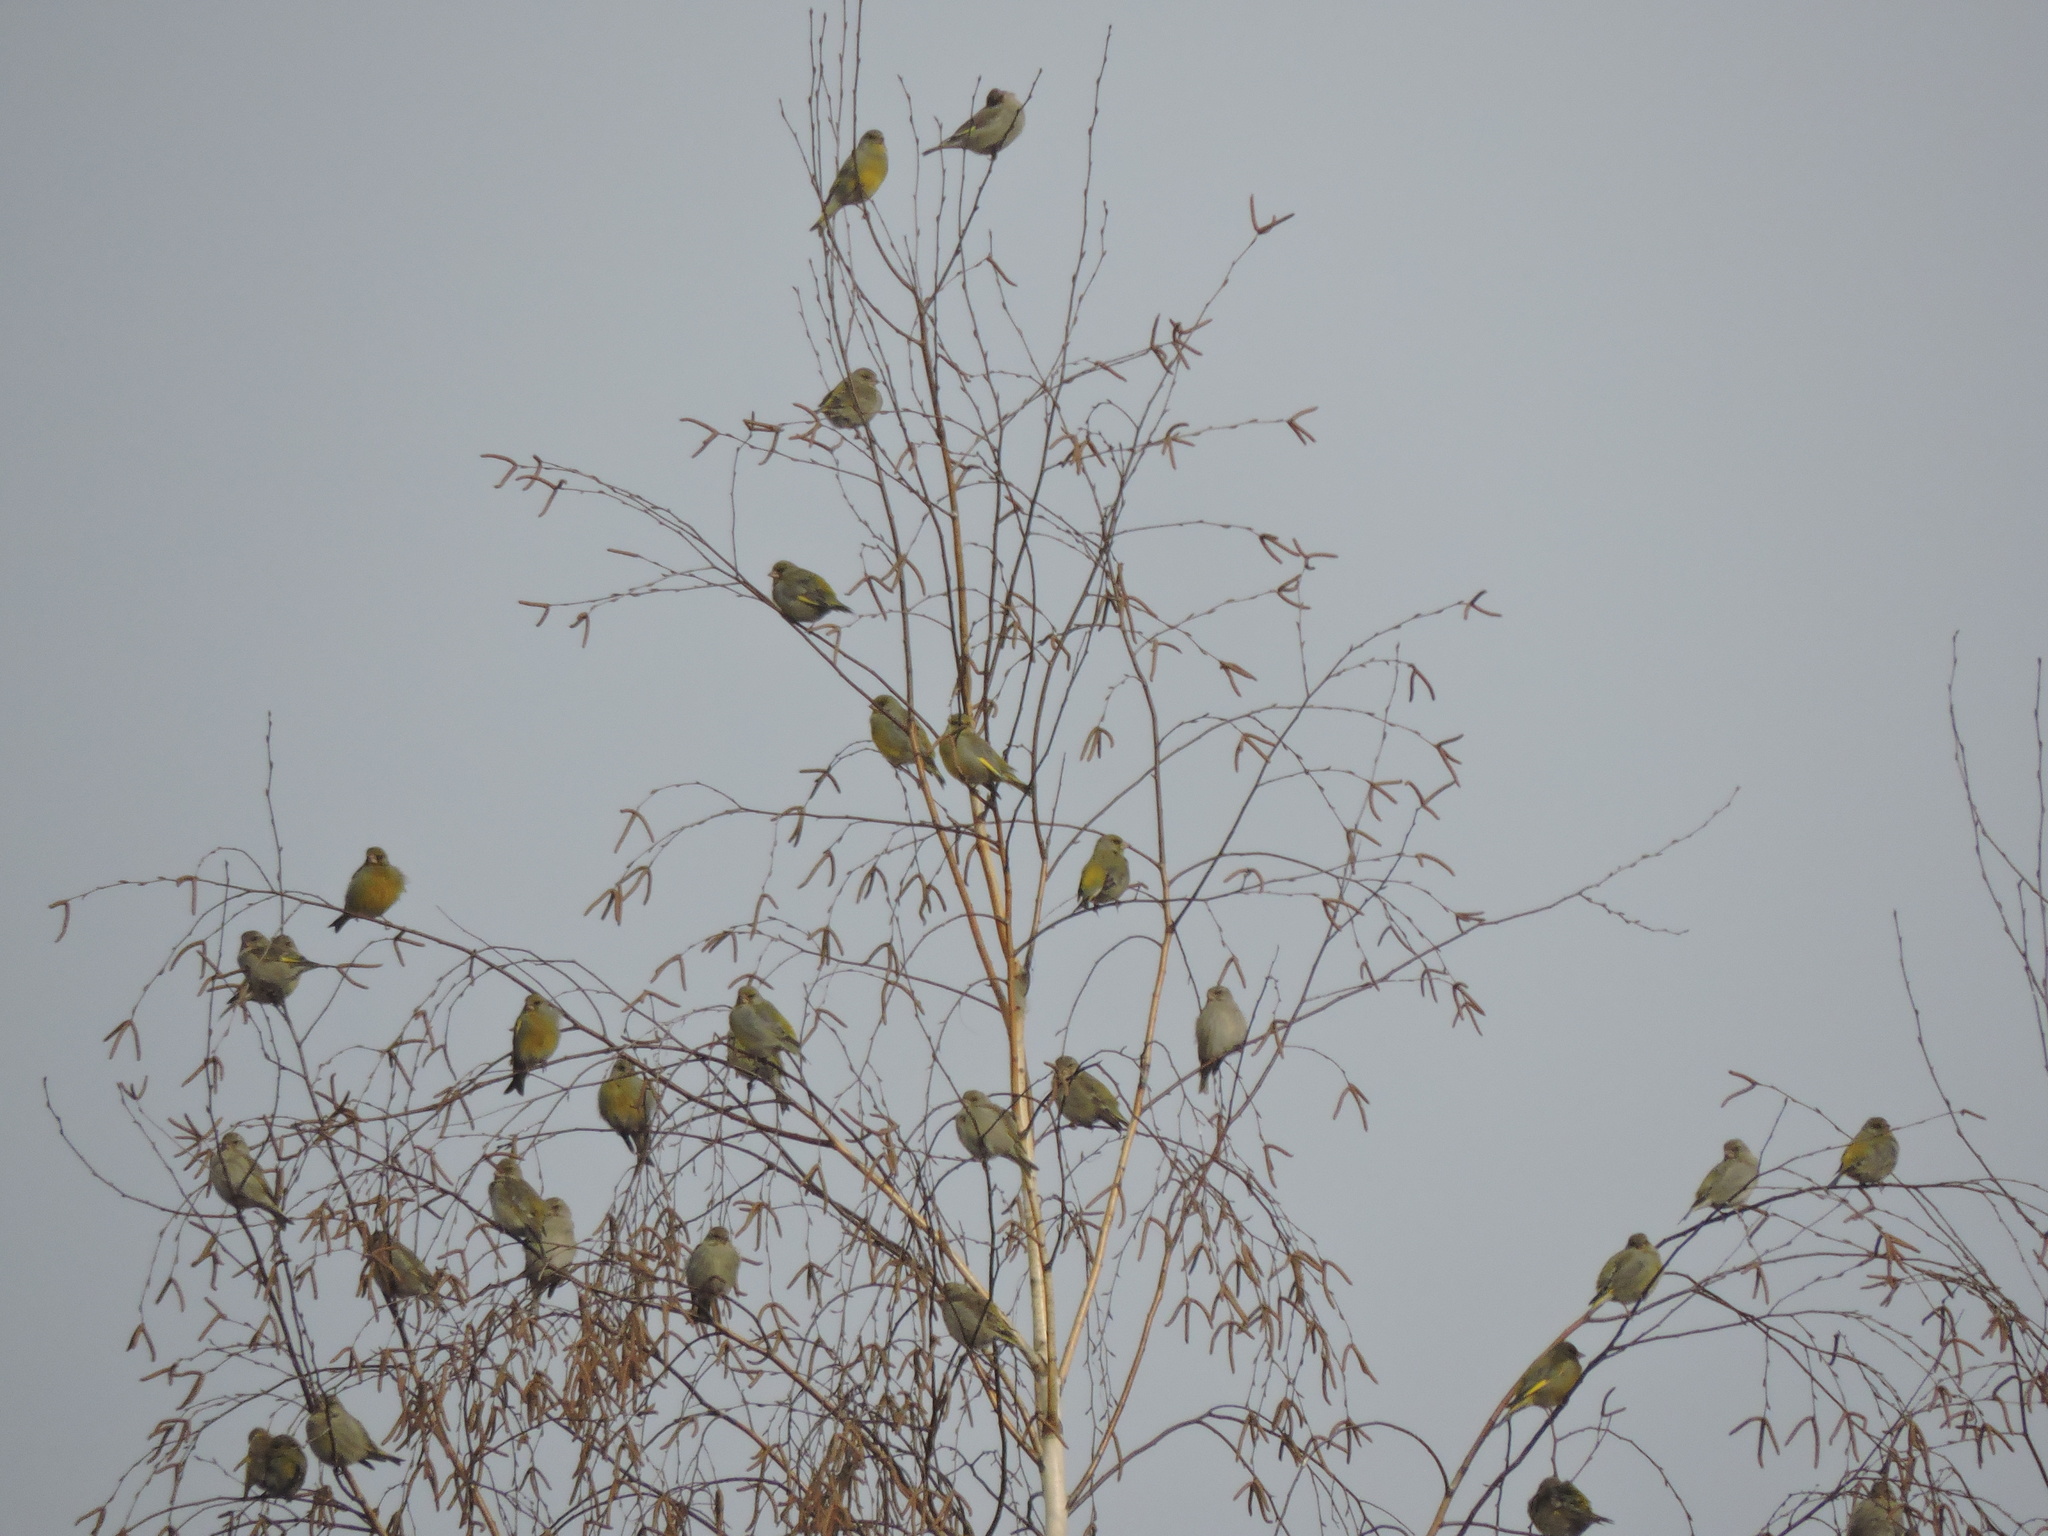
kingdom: Plantae
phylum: Tracheophyta
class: Liliopsida
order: Poales
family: Poaceae
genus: Chloris
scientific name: Chloris chloris
